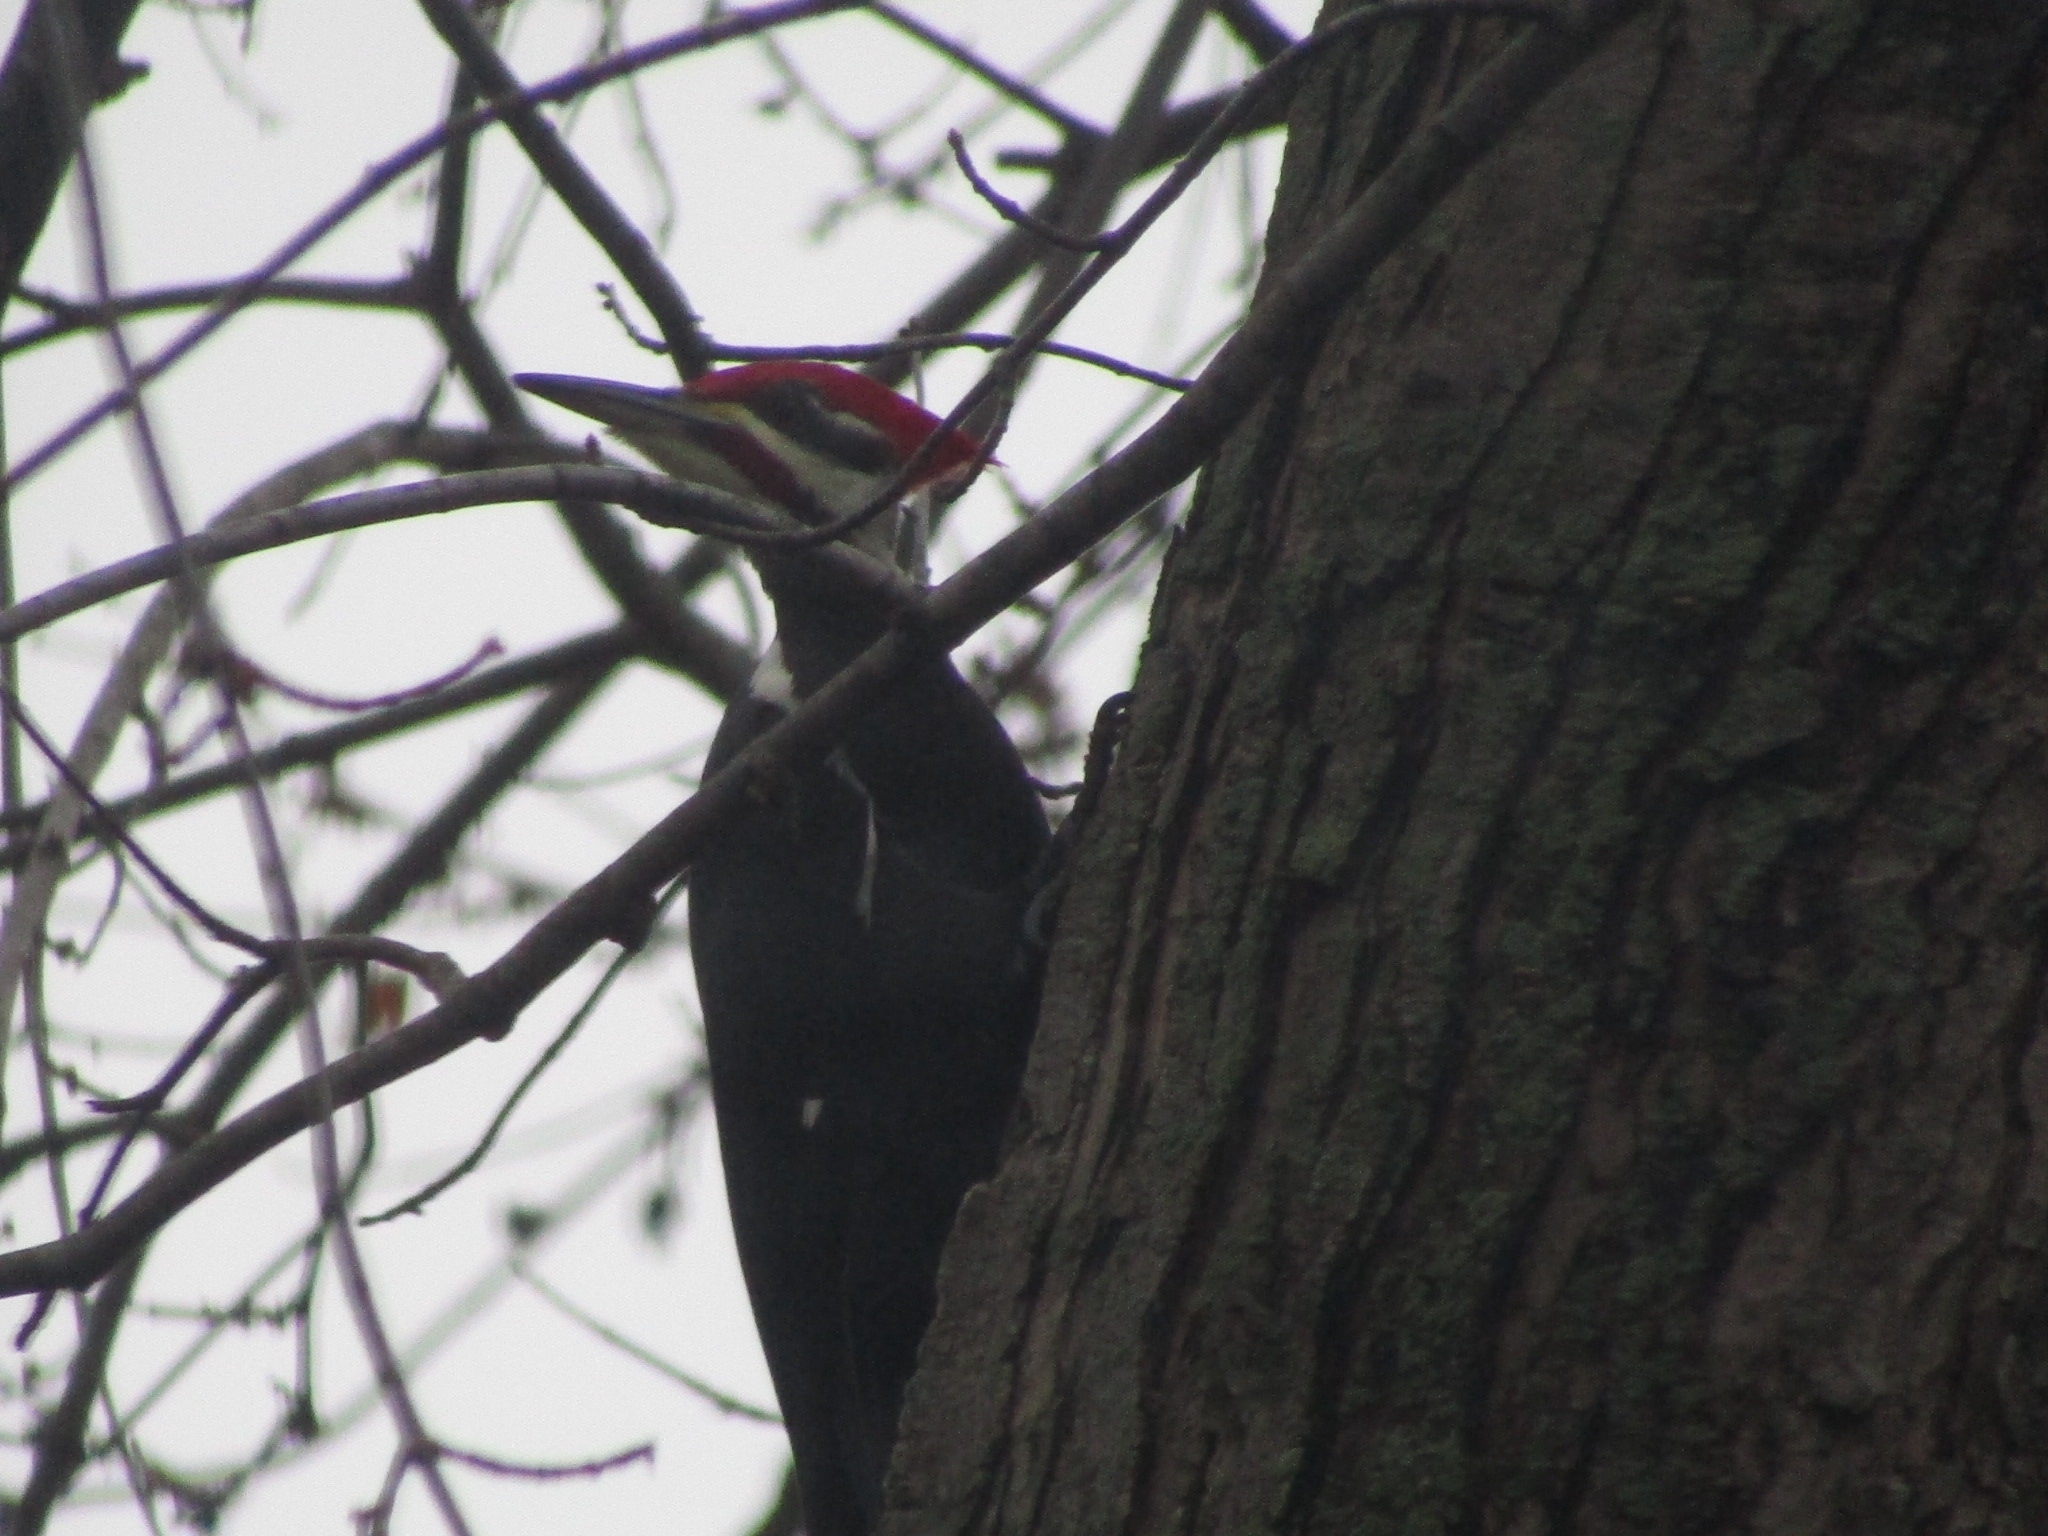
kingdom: Animalia
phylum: Chordata
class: Aves
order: Piciformes
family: Picidae
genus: Dryocopus
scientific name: Dryocopus pileatus
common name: Pileated woodpecker
